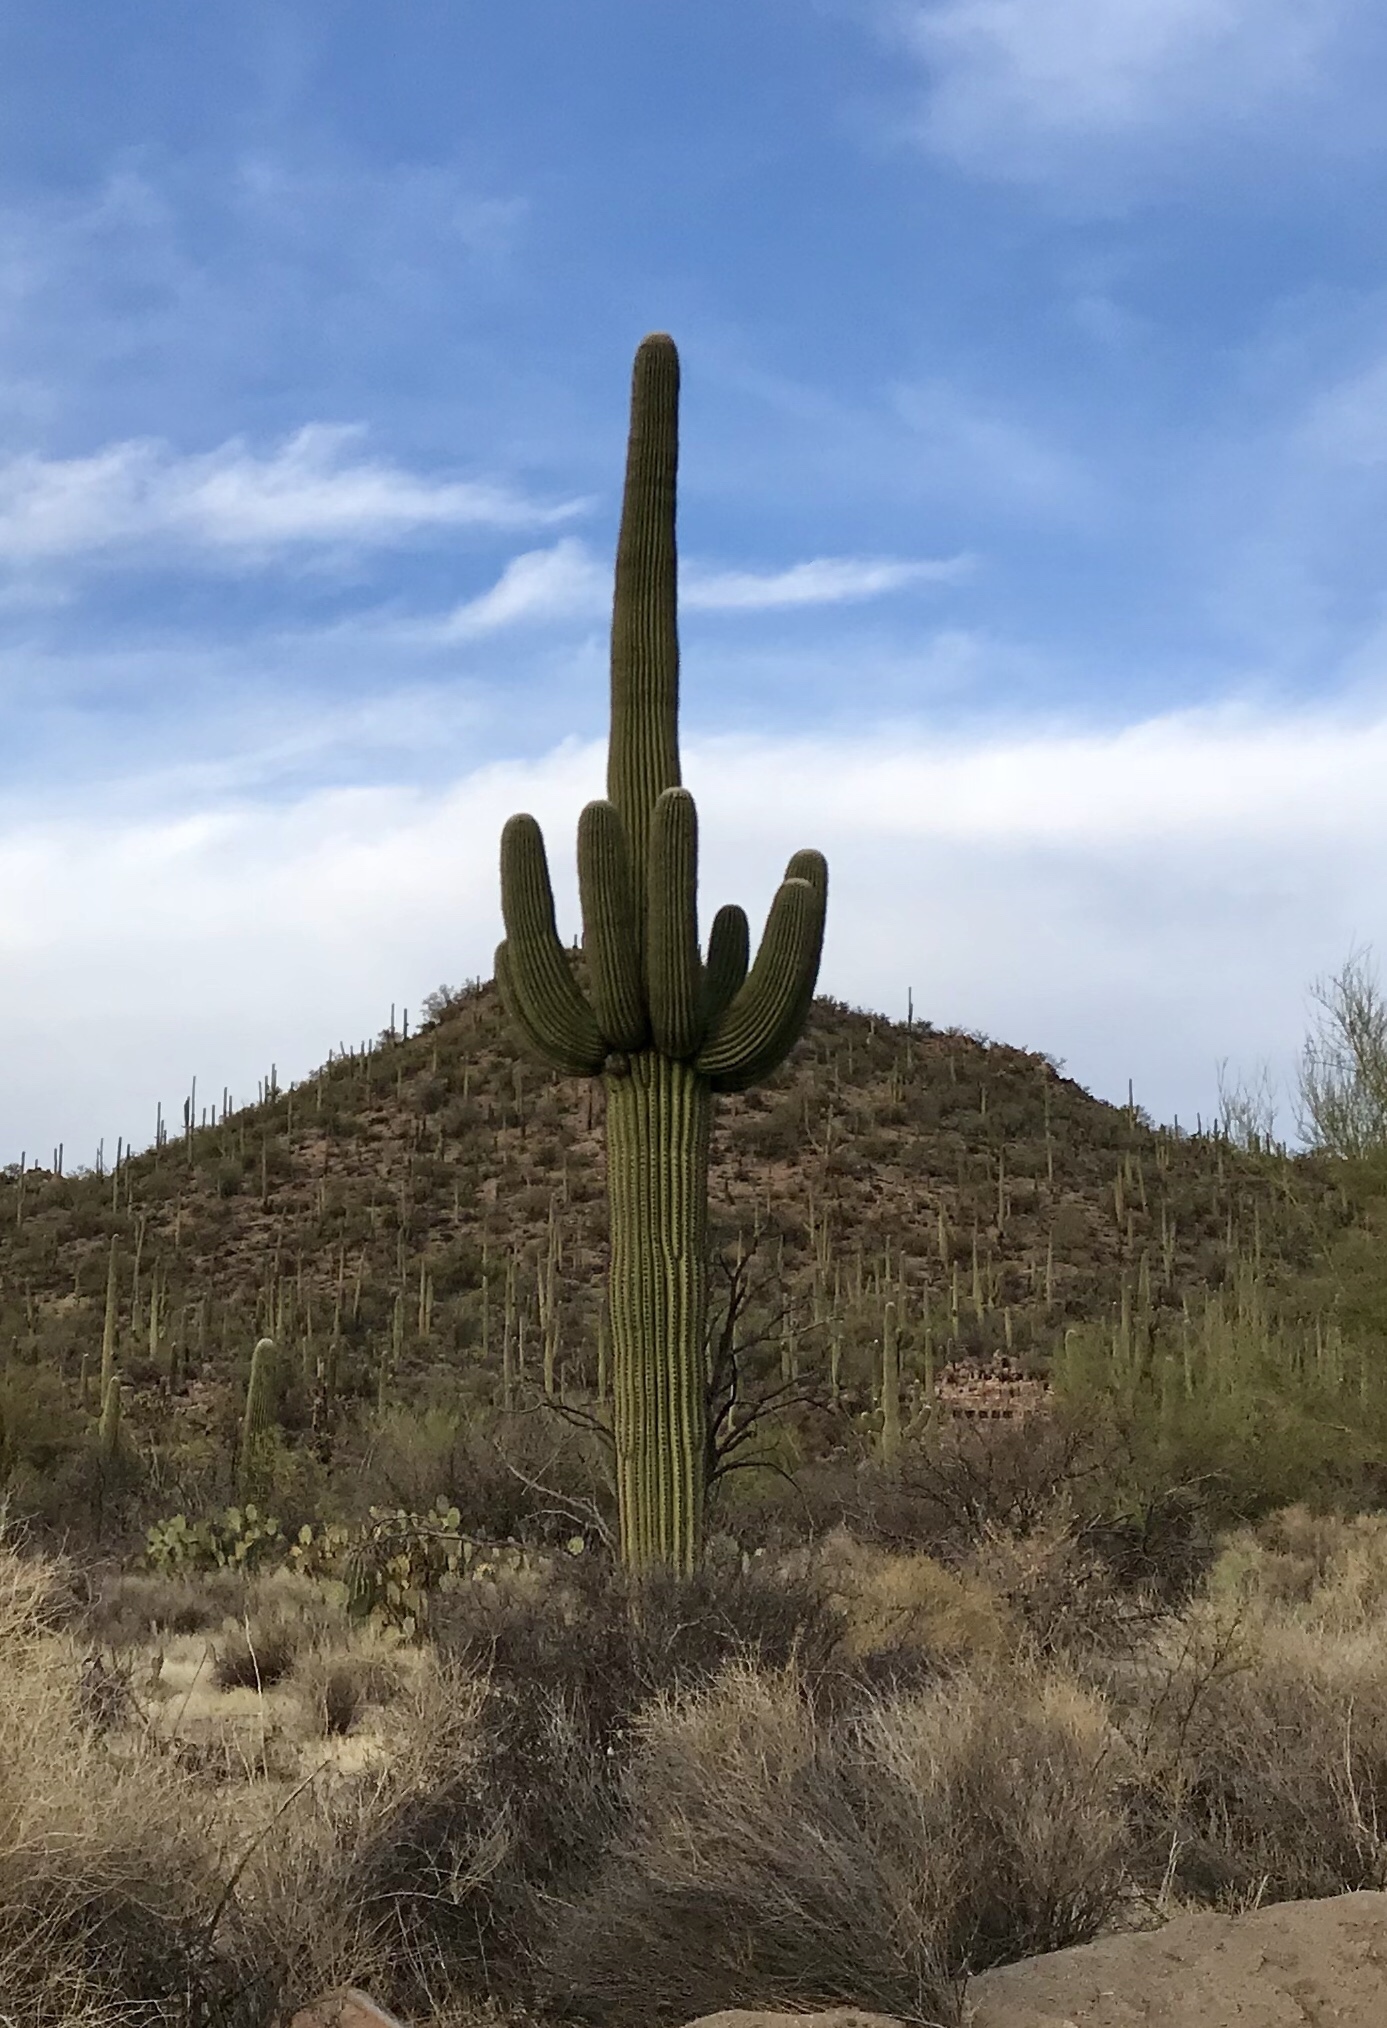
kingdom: Plantae
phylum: Tracheophyta
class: Magnoliopsida
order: Caryophyllales
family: Cactaceae
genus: Carnegiea
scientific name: Carnegiea gigantea
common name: Saguaro
